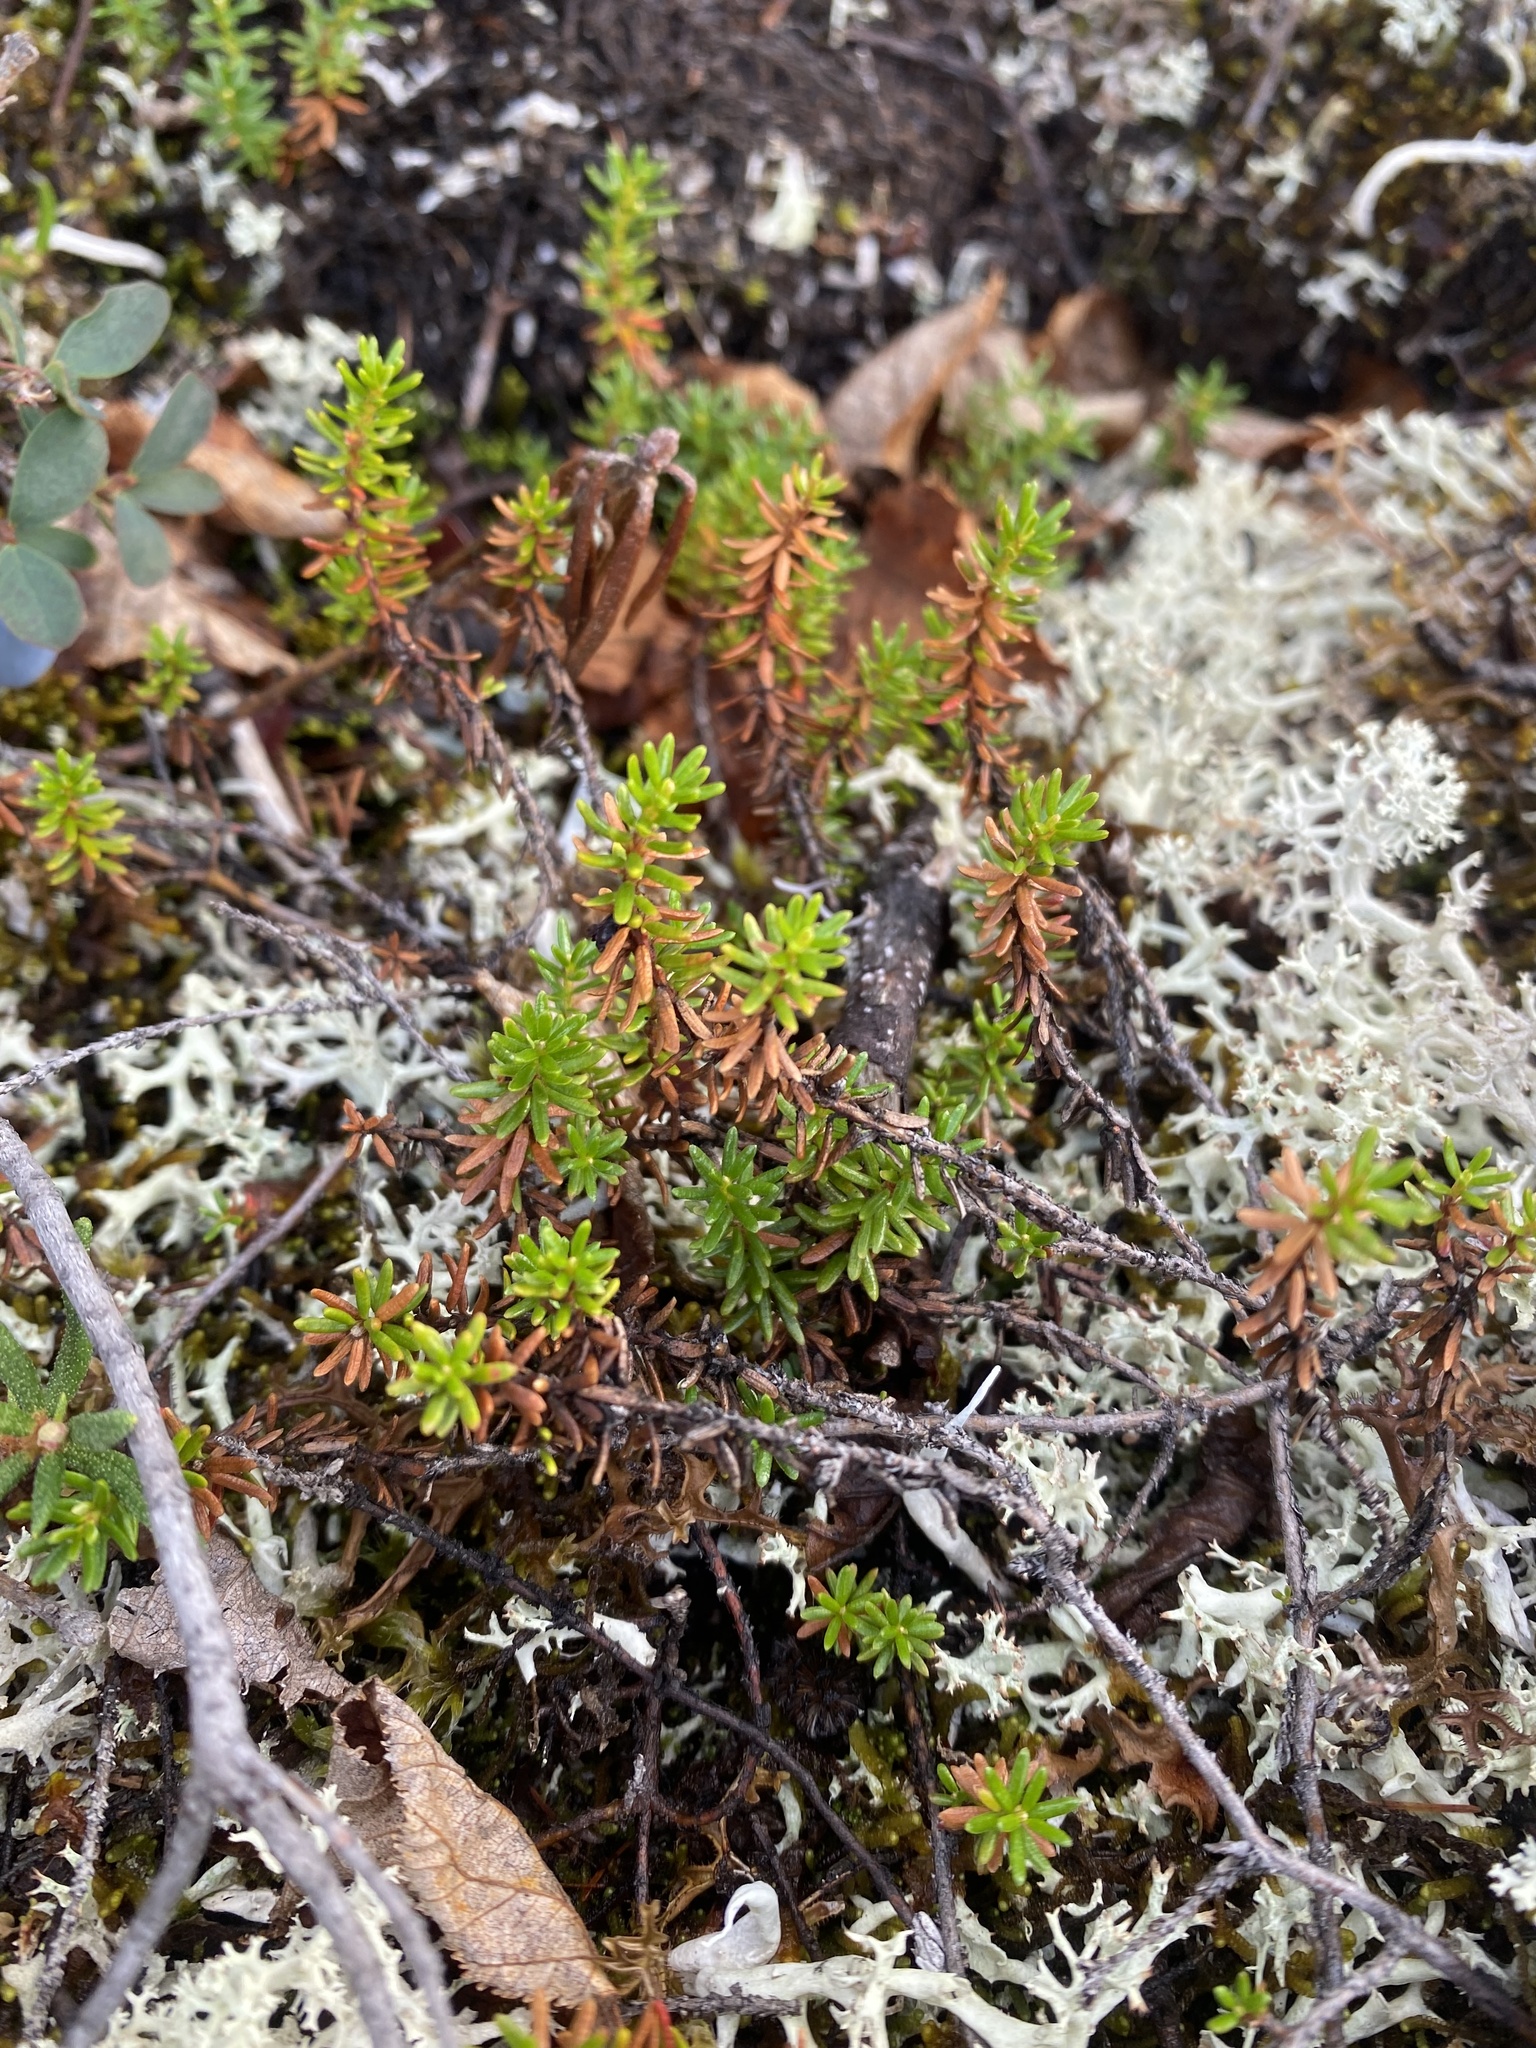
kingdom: Plantae
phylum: Tracheophyta
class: Magnoliopsida
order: Ericales
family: Ericaceae
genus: Empetrum
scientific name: Empetrum nigrum
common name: Black crowberry
